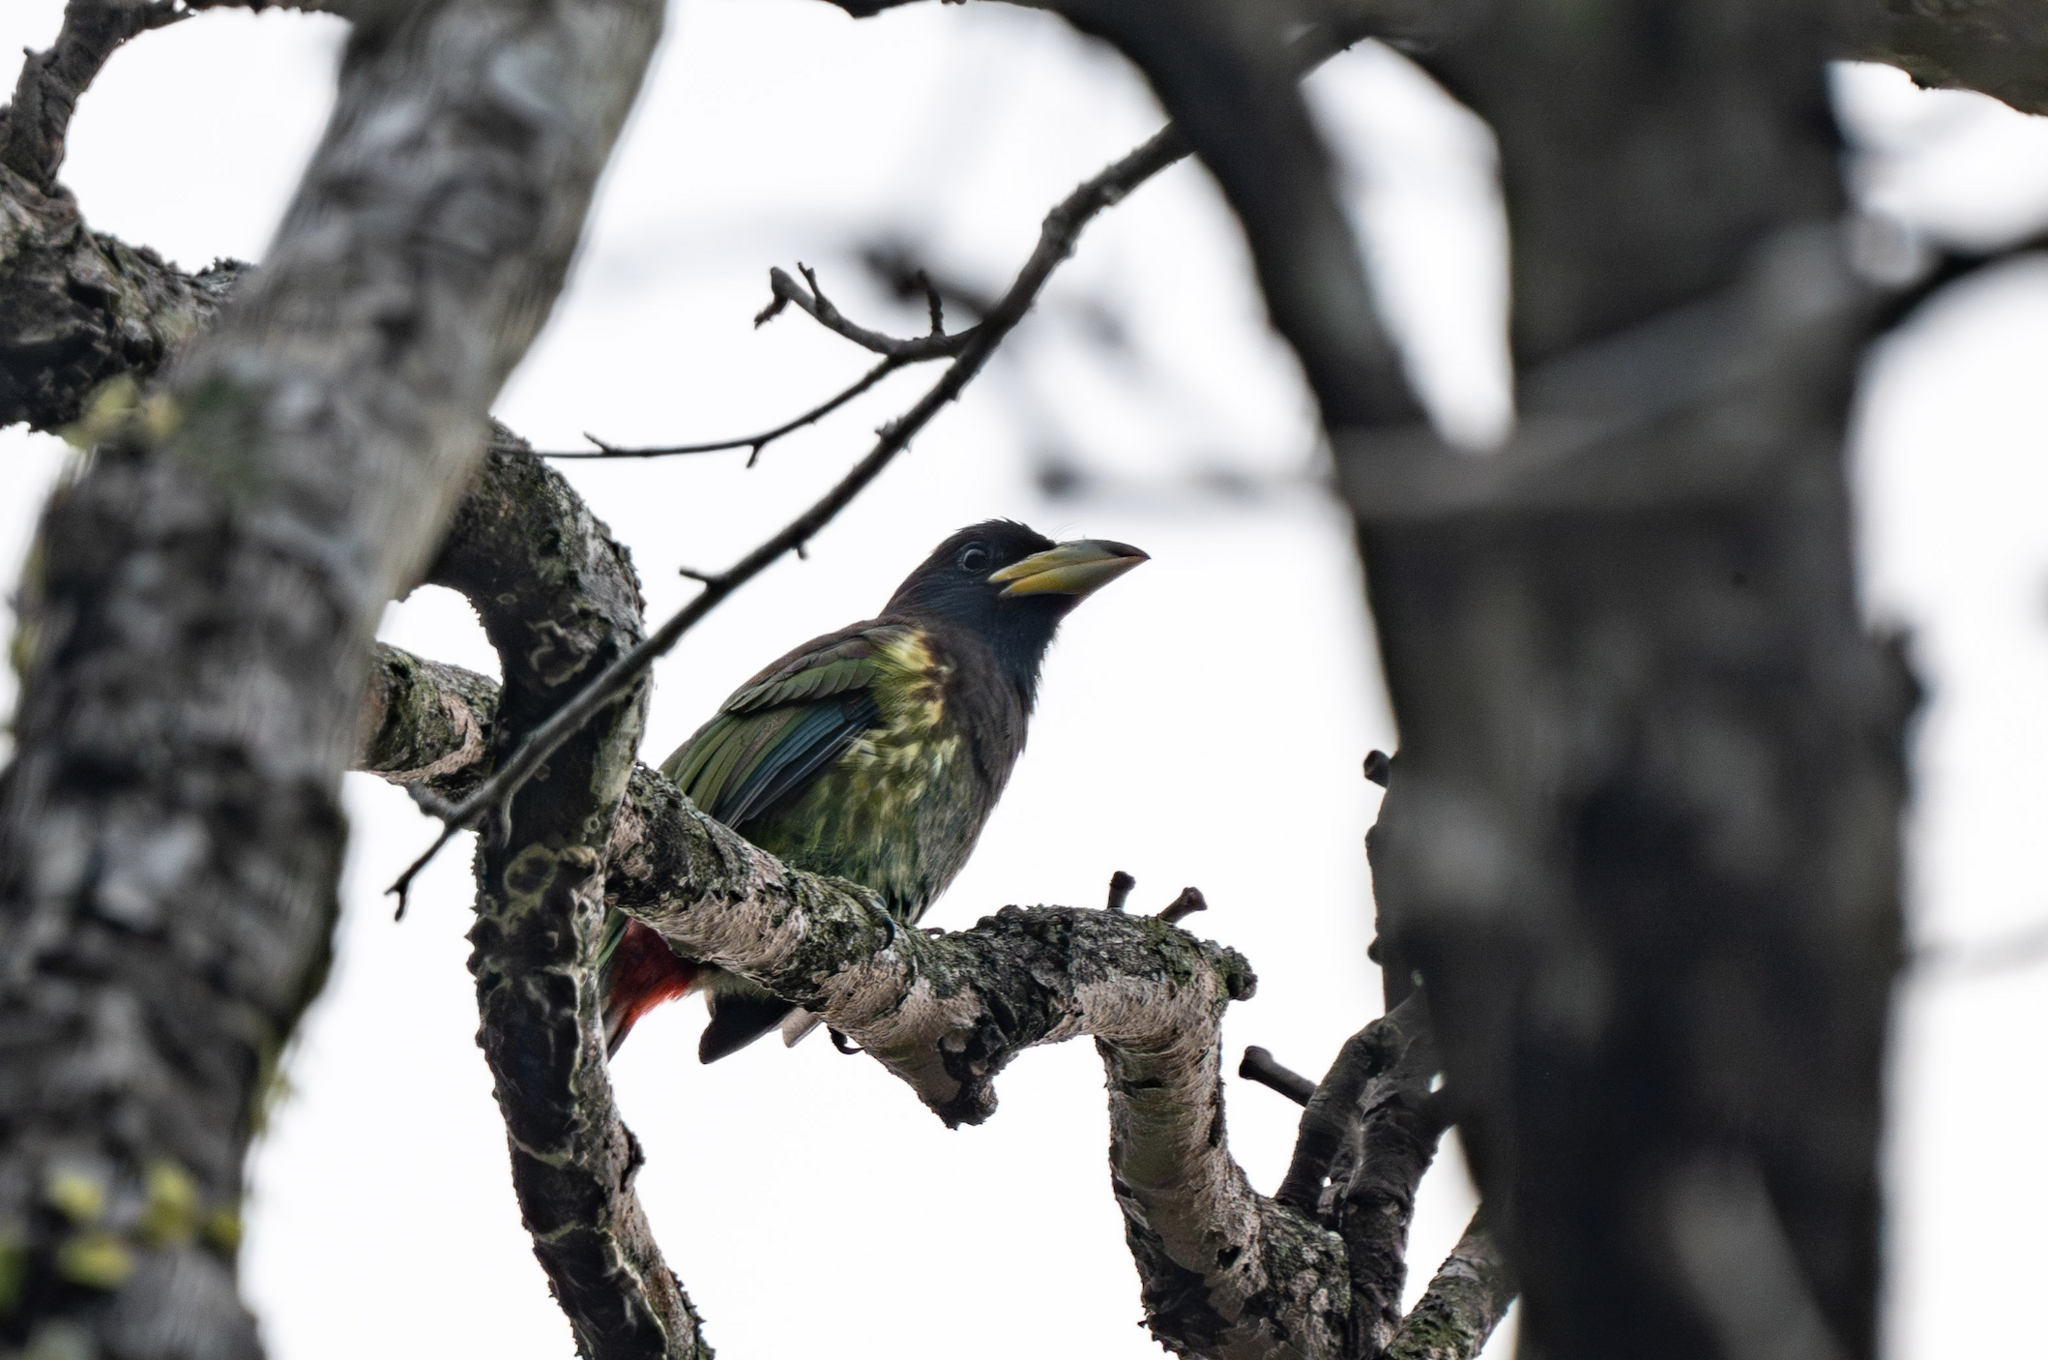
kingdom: Animalia
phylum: Chordata
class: Aves
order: Piciformes
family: Megalaimidae
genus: Psilopogon
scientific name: Psilopogon virens
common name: Great barbet
